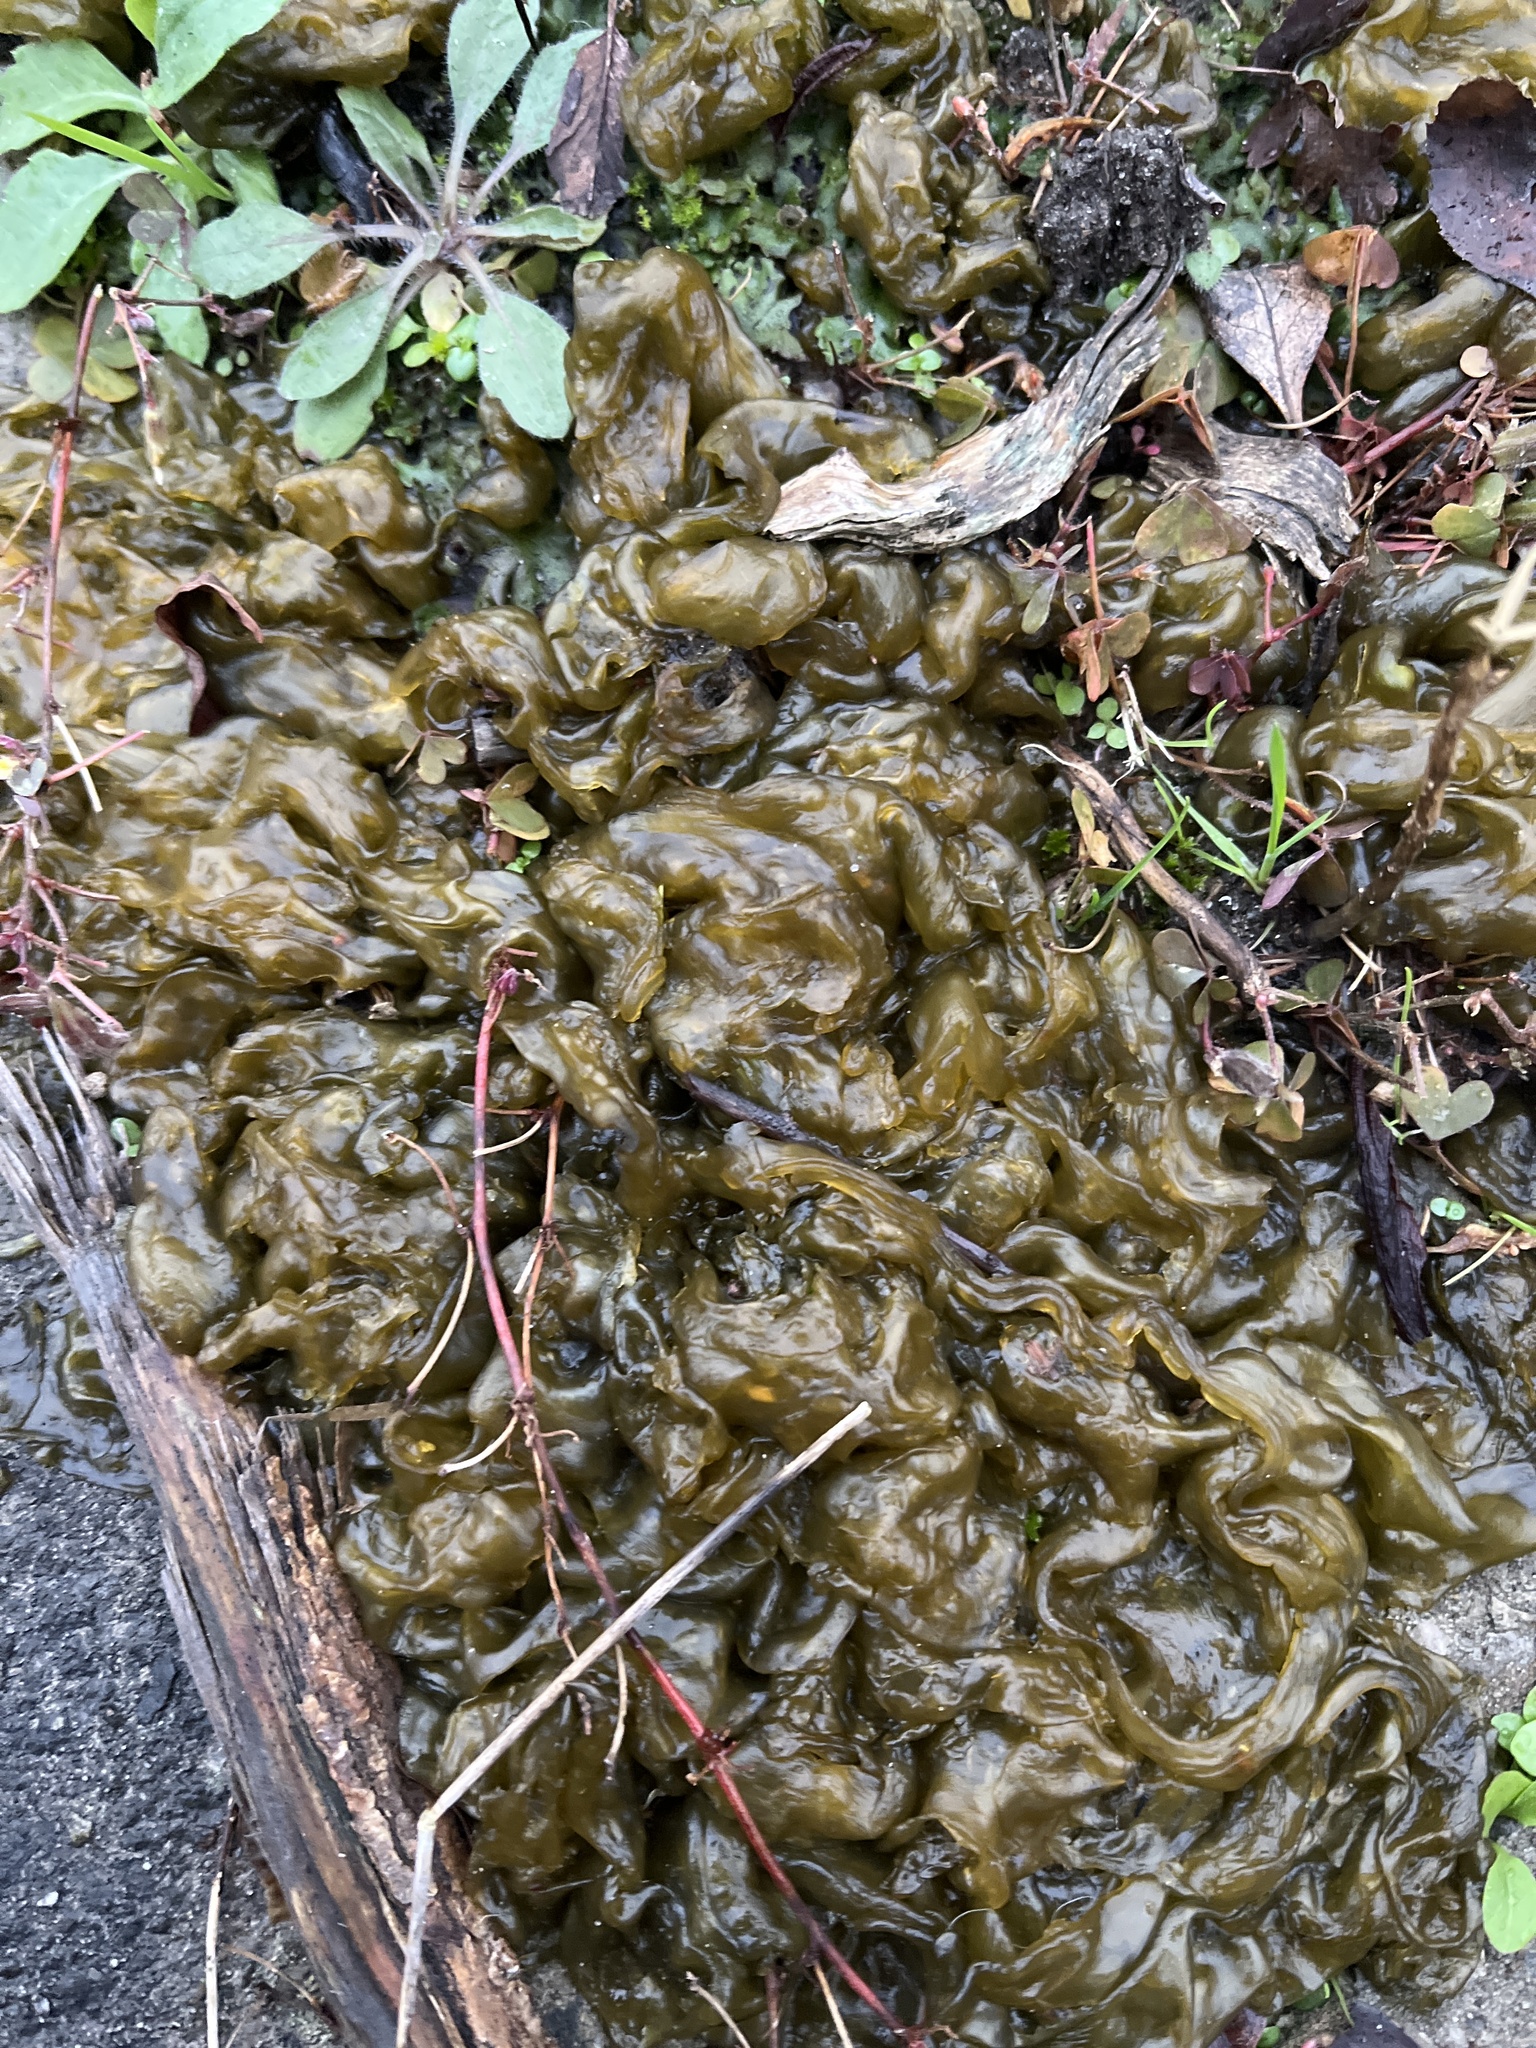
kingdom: Bacteria
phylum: Cyanobacteria
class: Cyanobacteriia
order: Cyanobacteriales
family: Nostocaceae
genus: Nostoc
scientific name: Nostoc commune
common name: Star jelly
